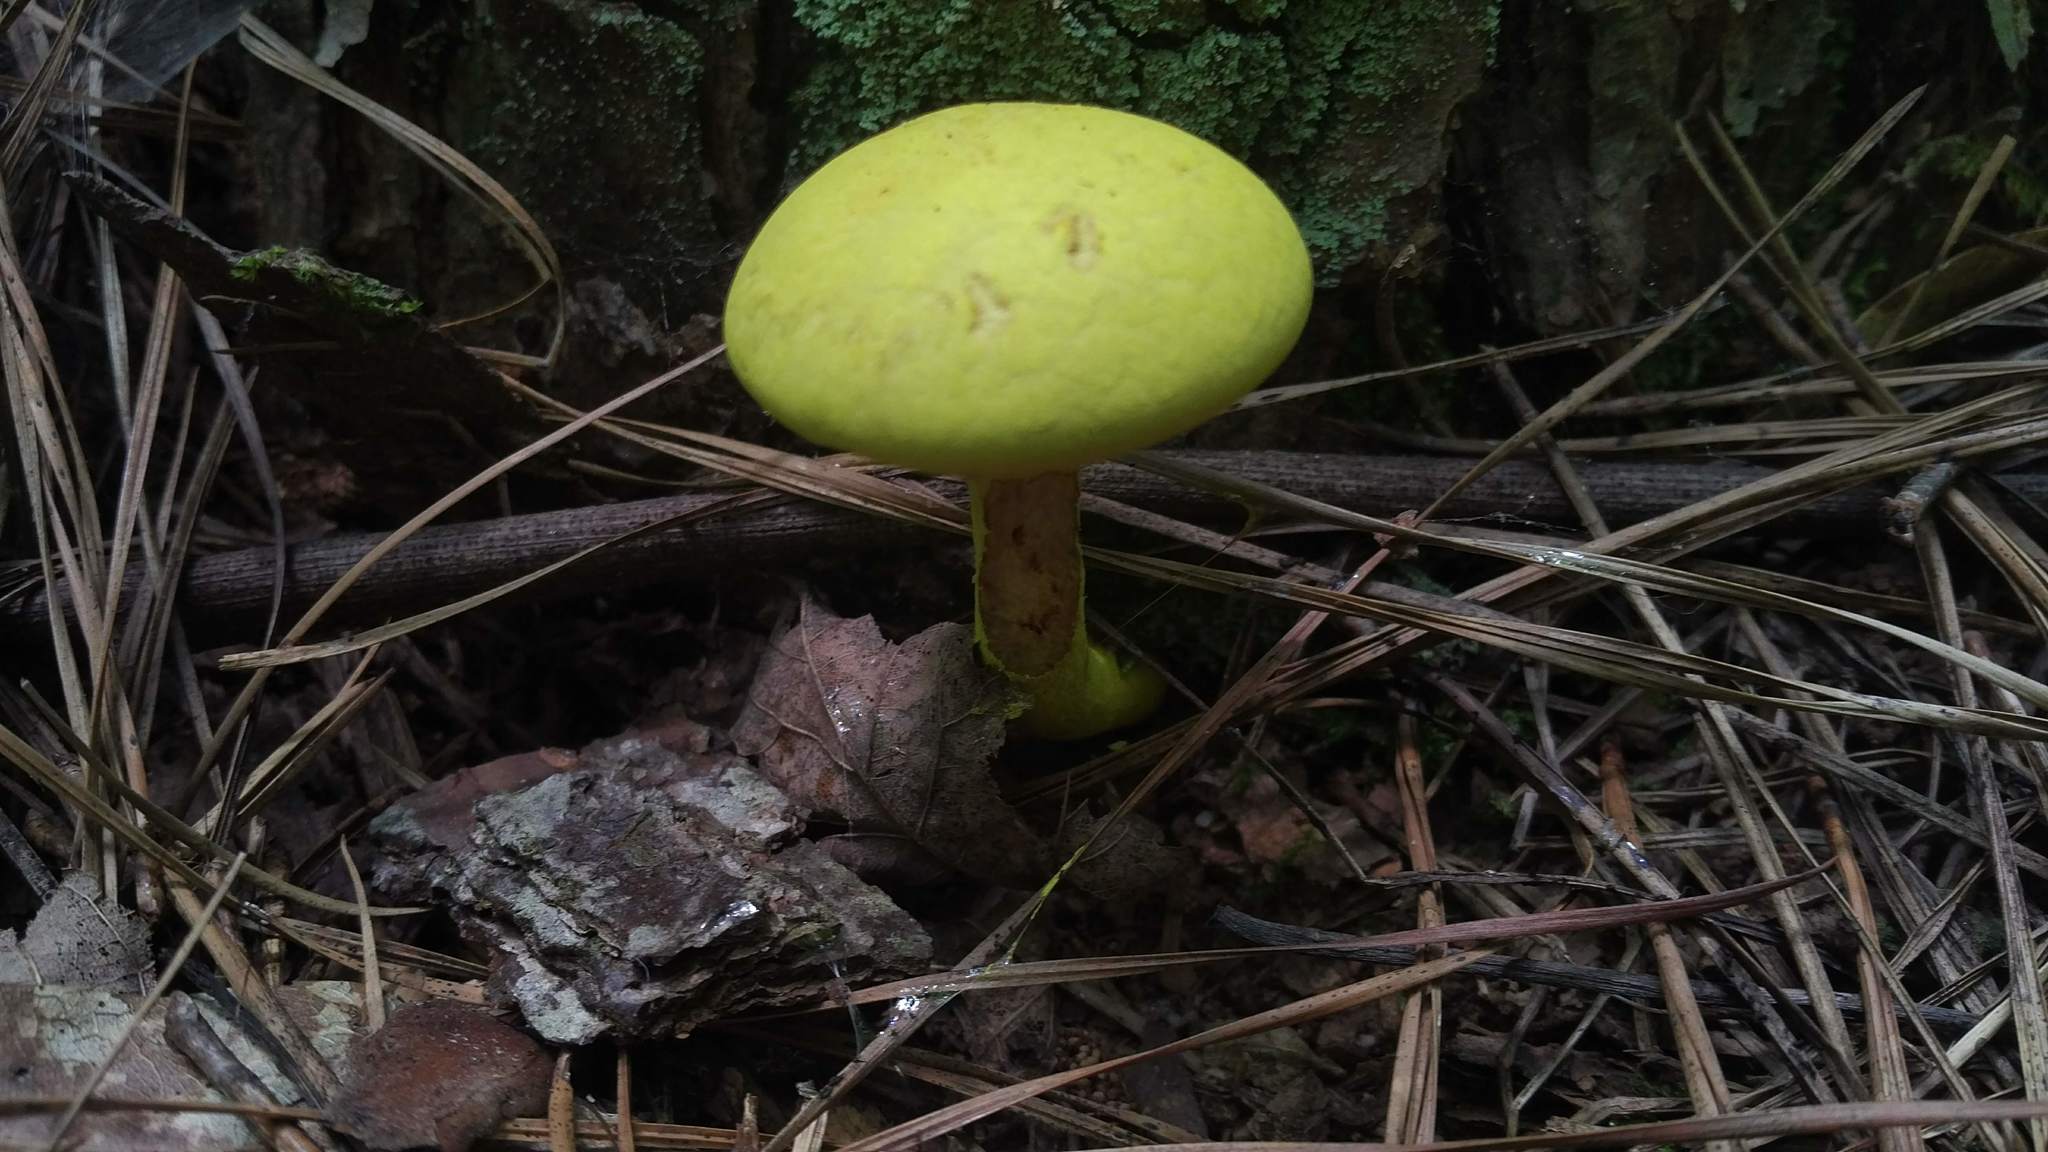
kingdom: Fungi
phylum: Basidiomycota
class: Agaricomycetes
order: Boletales
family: Boletaceae
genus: Pulveroboletus
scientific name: Pulveroboletus ravenelii
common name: Powdery sulfur bolete
